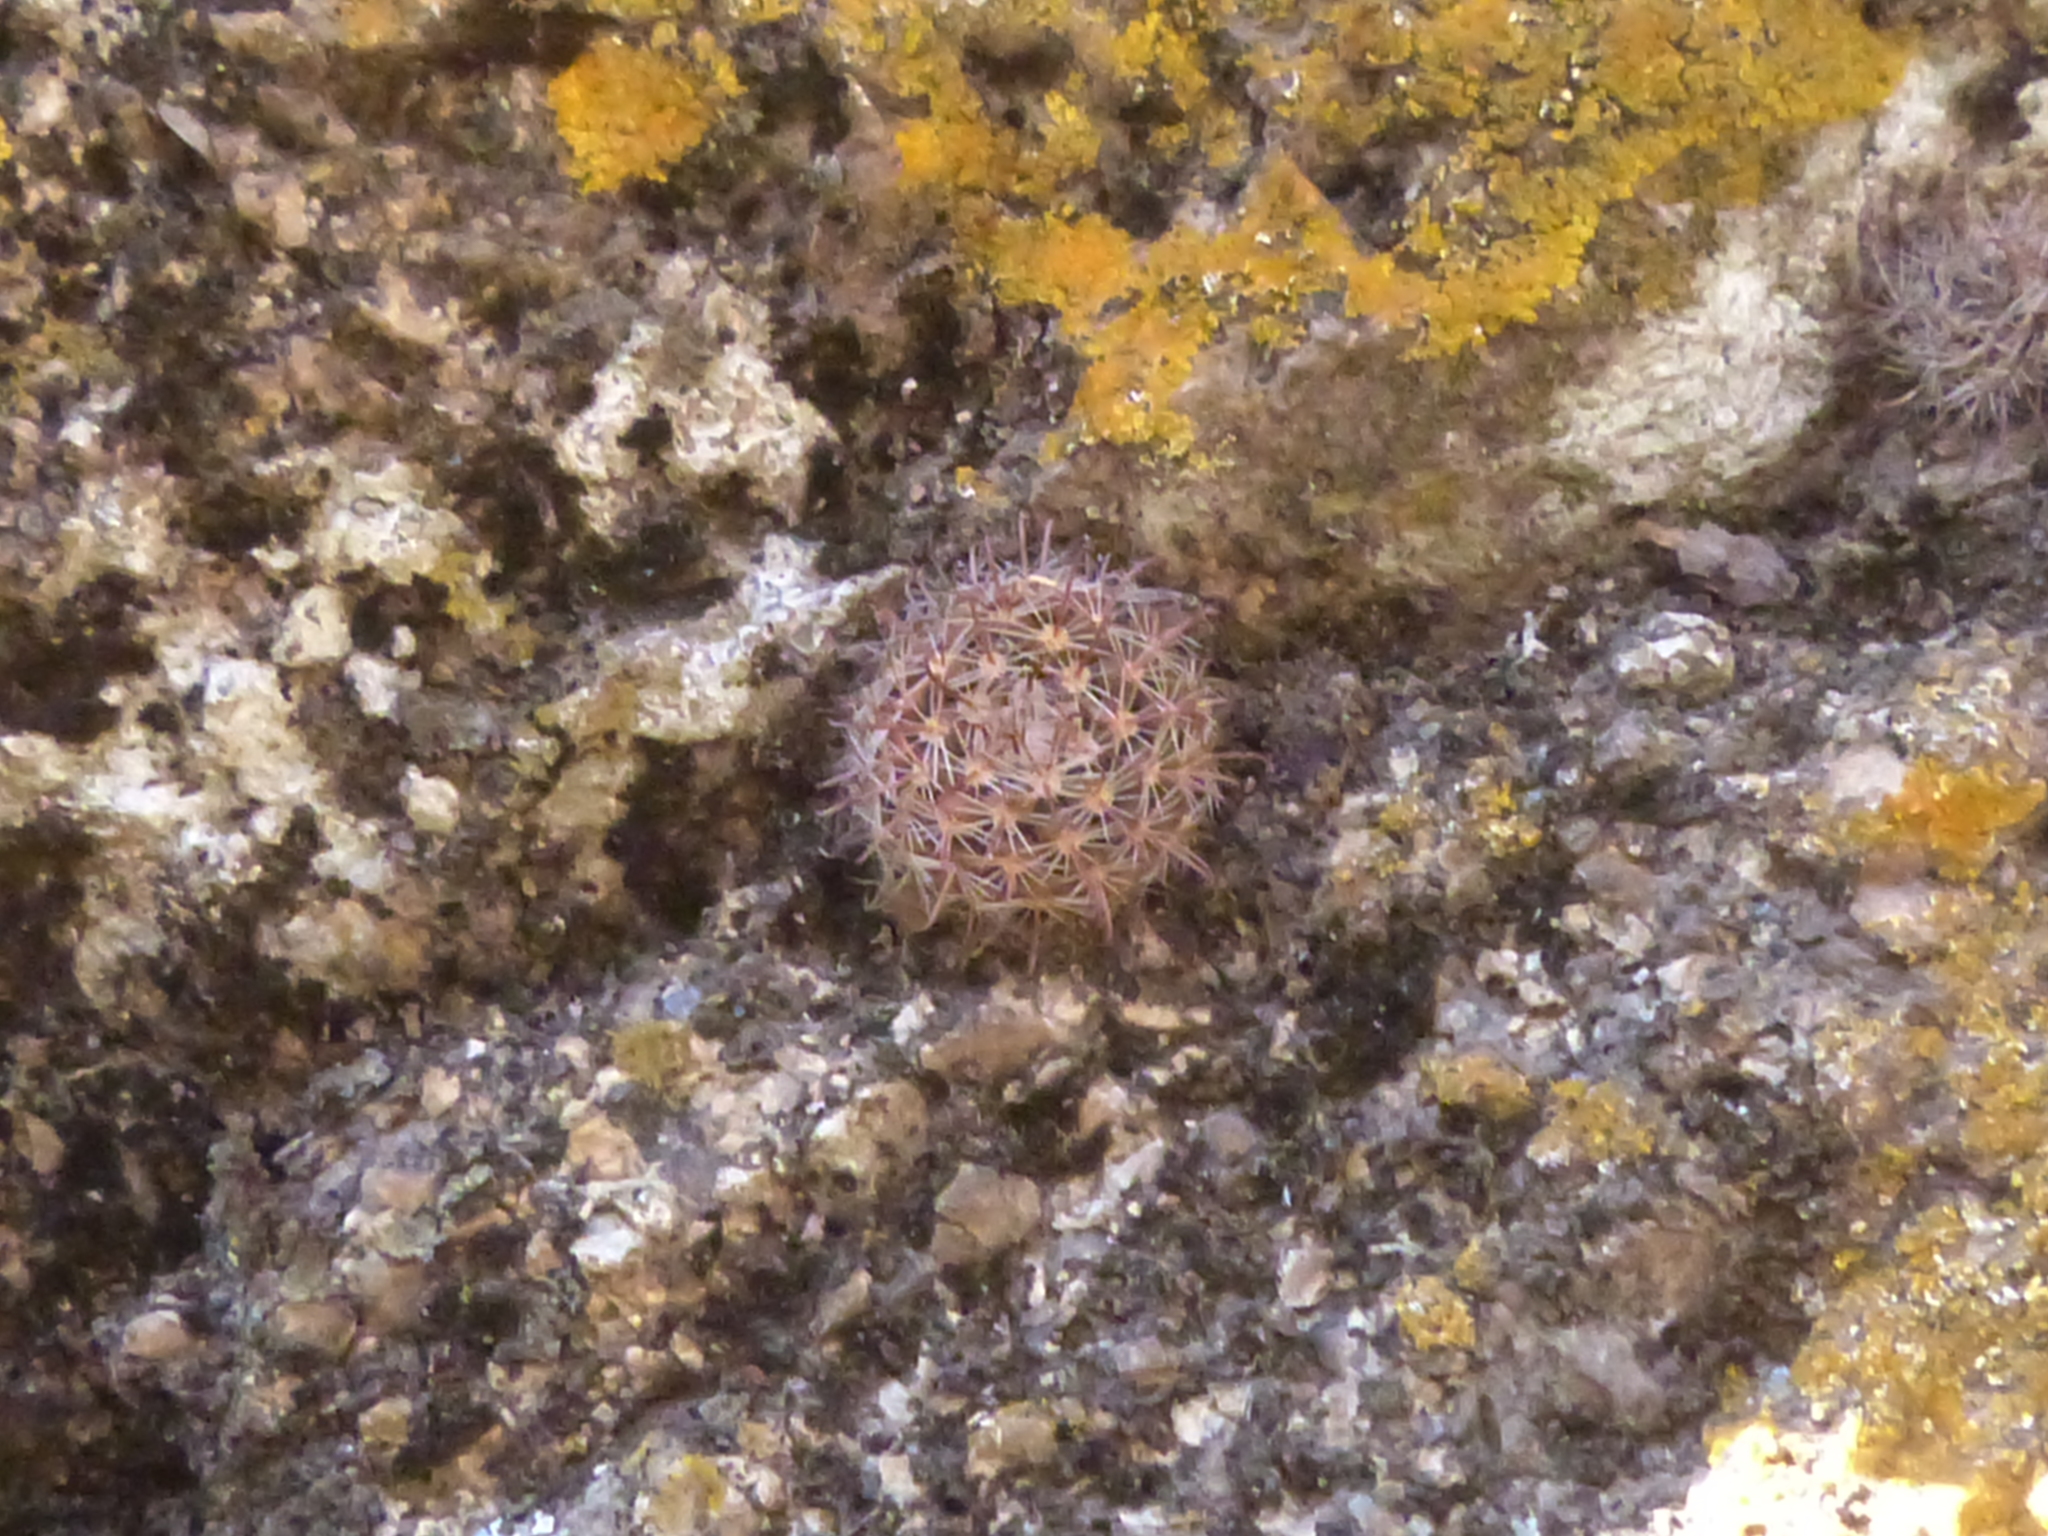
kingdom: Plantae
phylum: Tracheophyta
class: Magnoliopsida
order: Caryophyllales
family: Cactaceae
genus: Parodia
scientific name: Parodia microsperma
